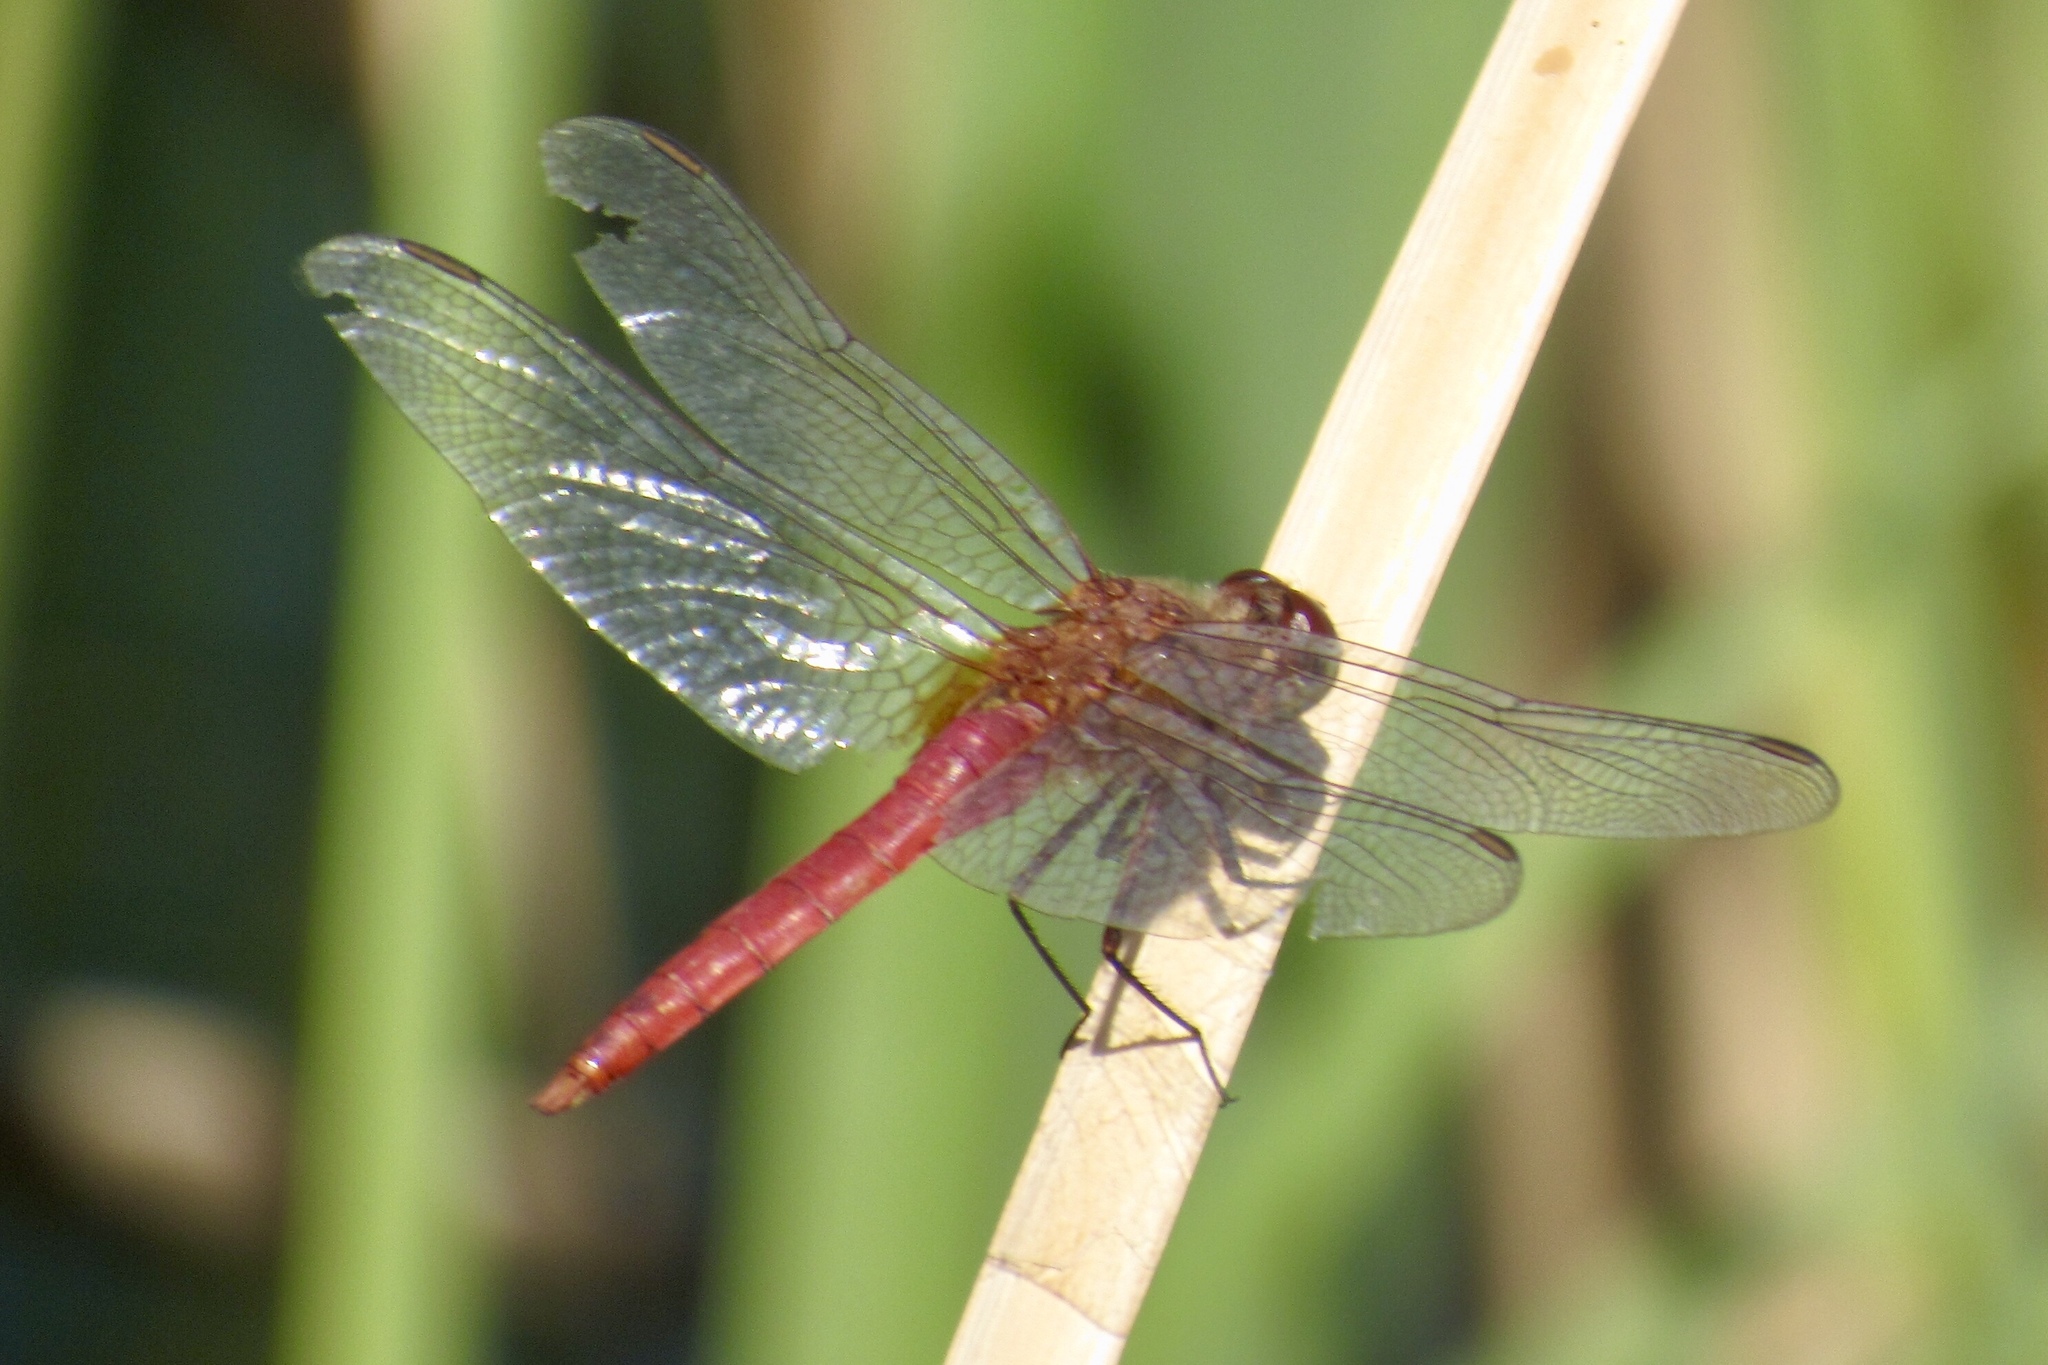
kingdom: Animalia
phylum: Arthropoda
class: Insecta
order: Odonata
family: Libellulidae
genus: Brachymesia
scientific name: Brachymesia furcata
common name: Red-taled pennant
